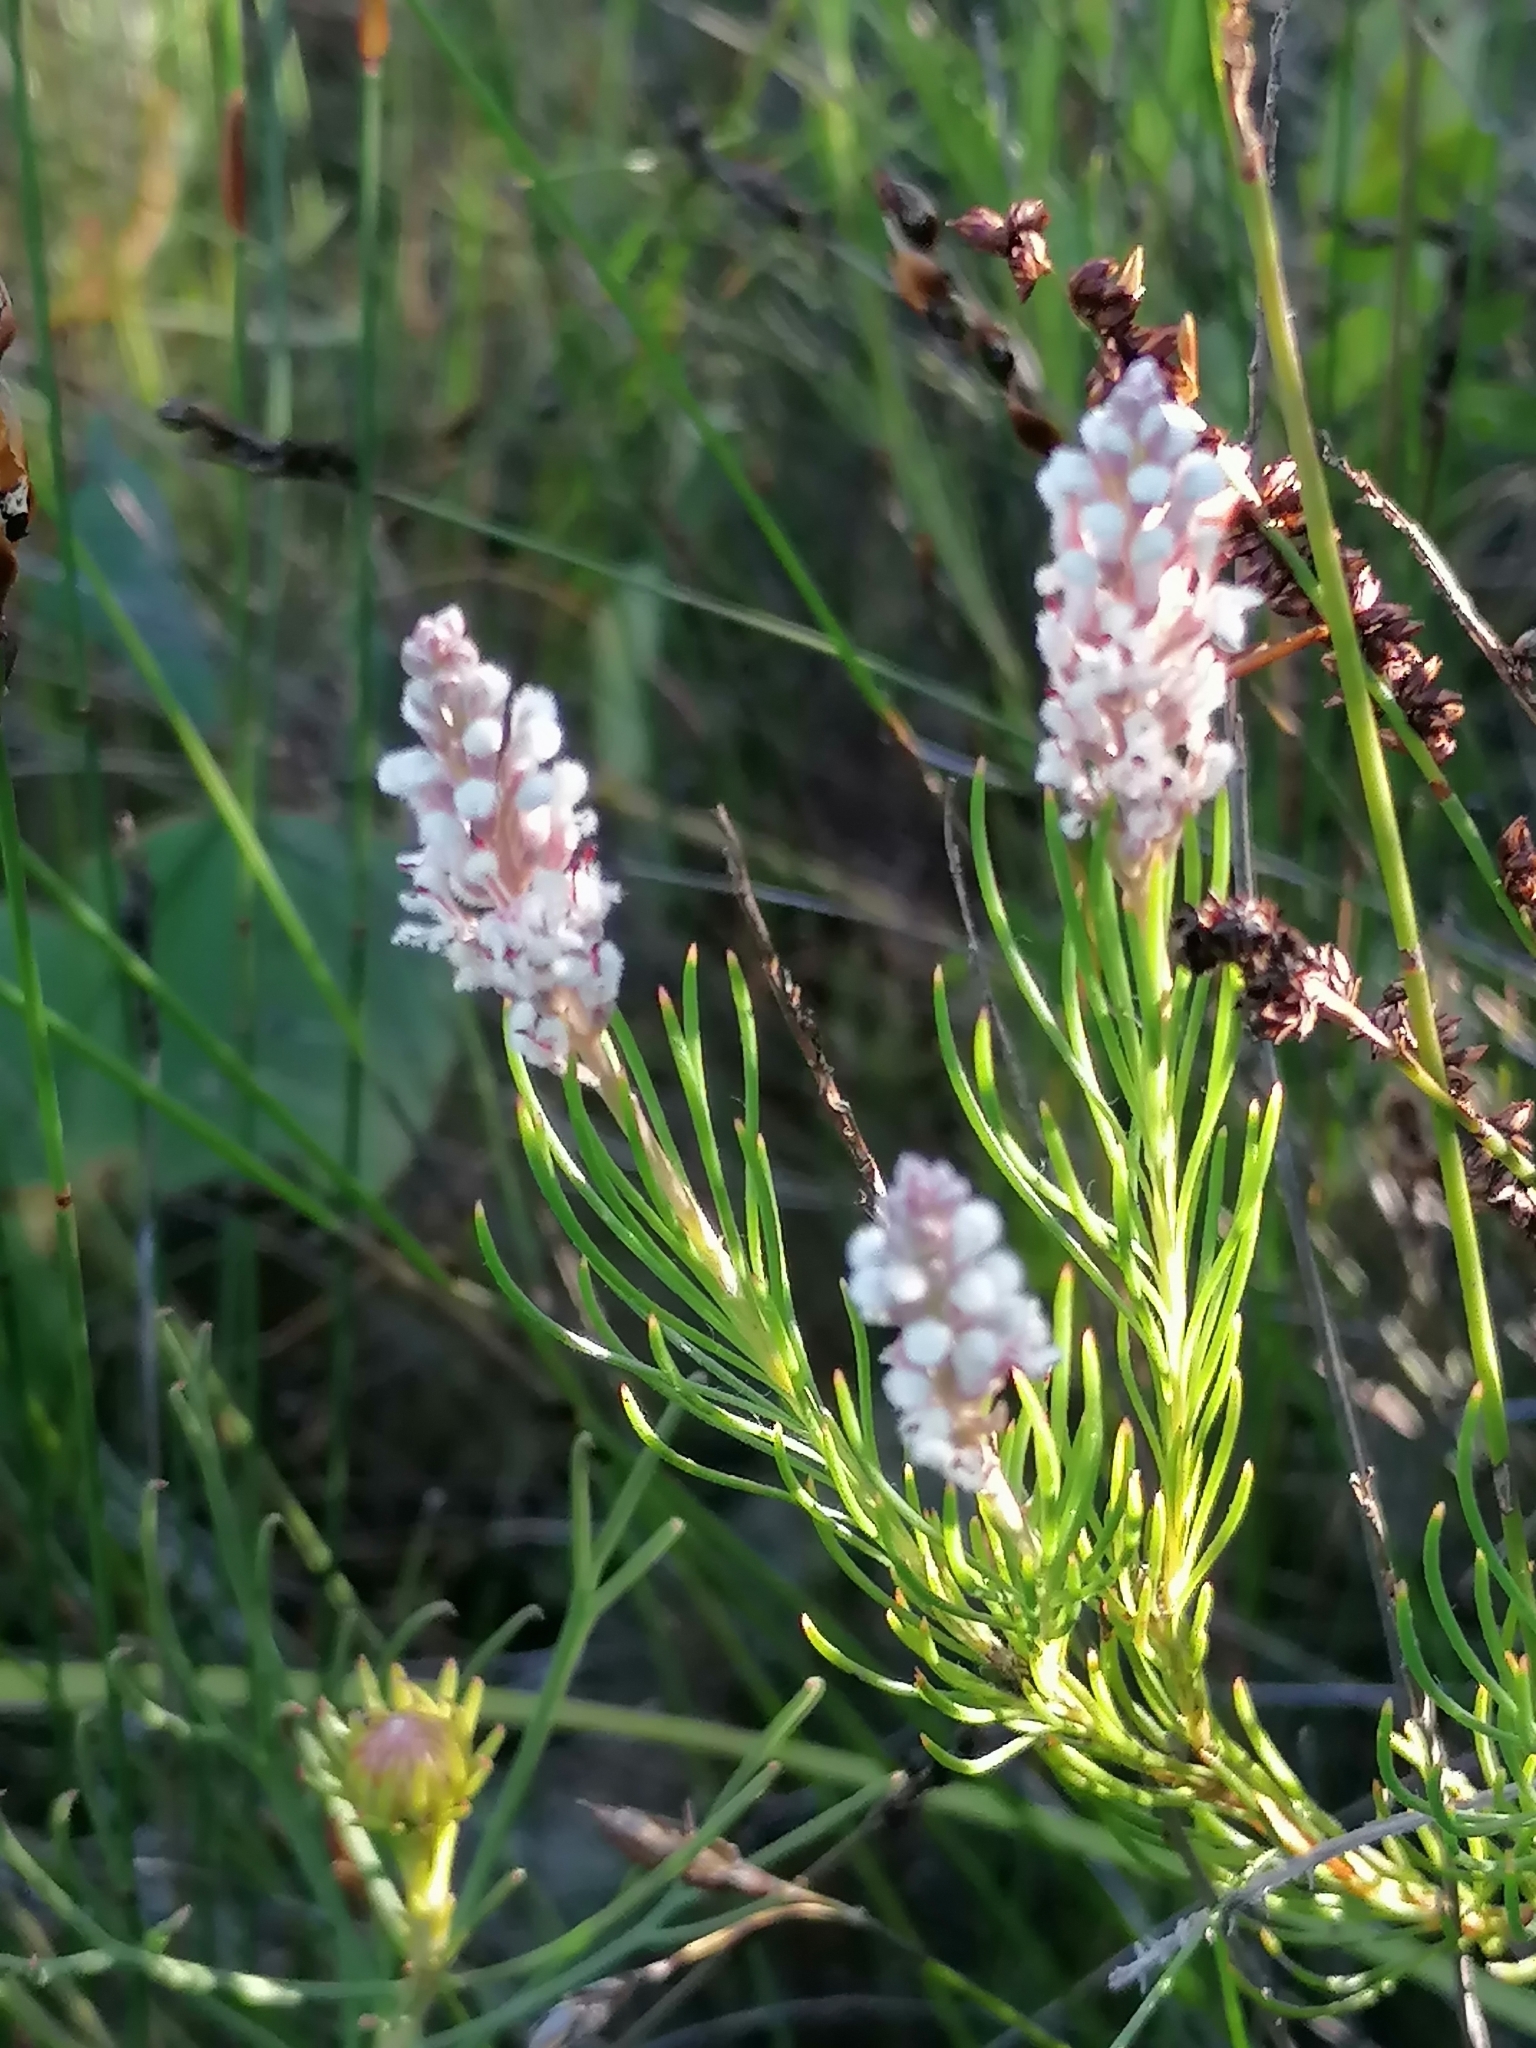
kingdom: Plantae
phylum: Tracheophyta
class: Magnoliopsida
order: Proteales
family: Proteaceae
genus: Spatalla
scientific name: Spatalla racemosa
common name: Lax-stalked spoon
